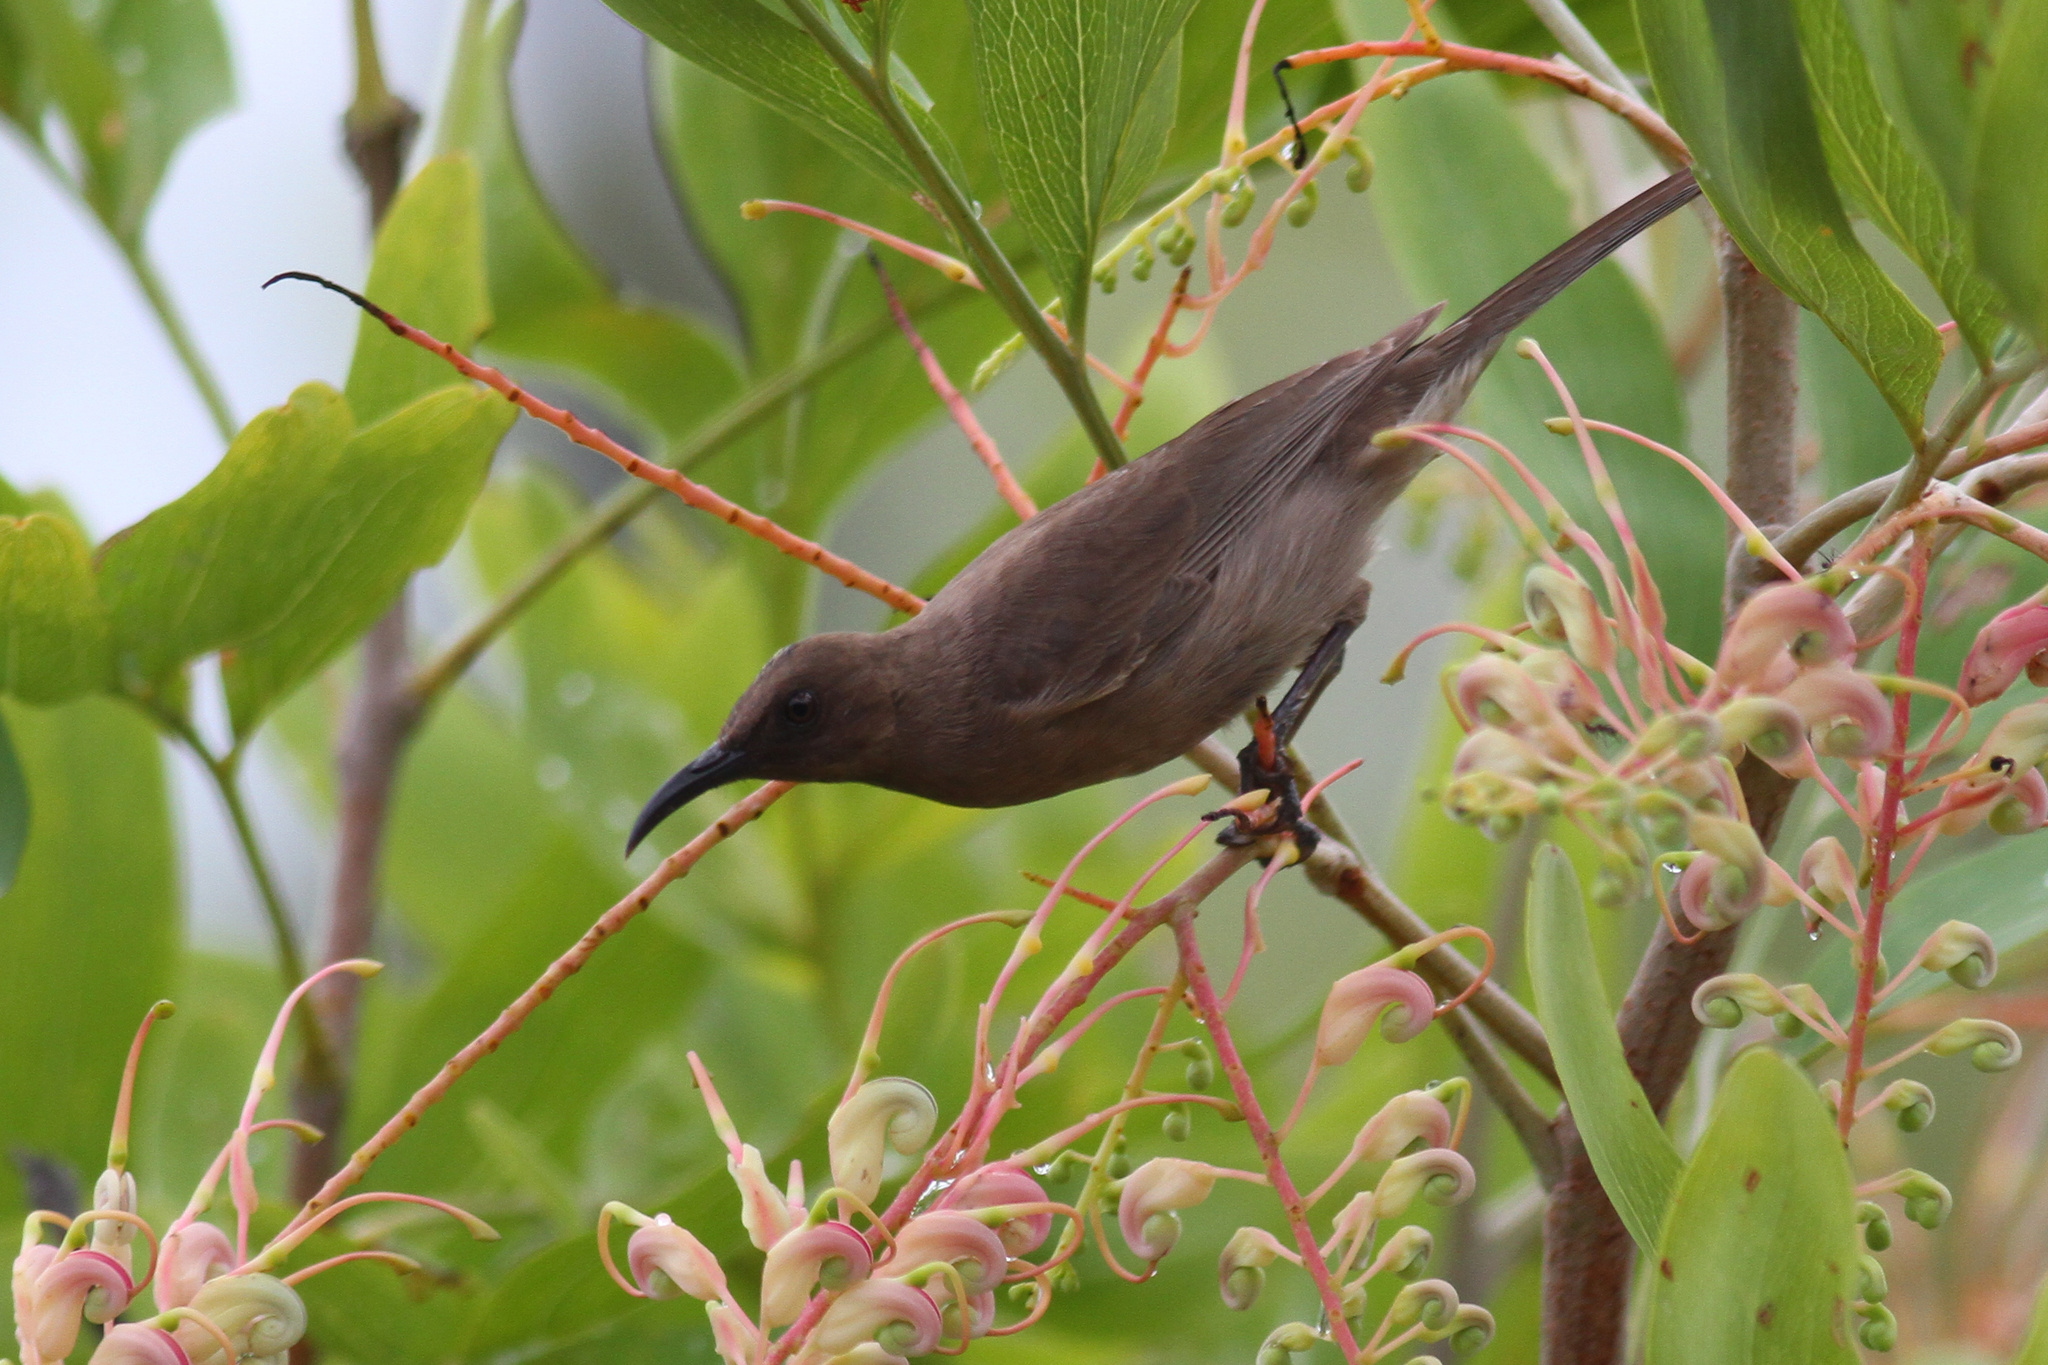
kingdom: Animalia
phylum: Chordata
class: Aves
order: Passeriformes
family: Meliphagidae
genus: Myzomela
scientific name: Myzomela obscura
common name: Dusky myzomela
